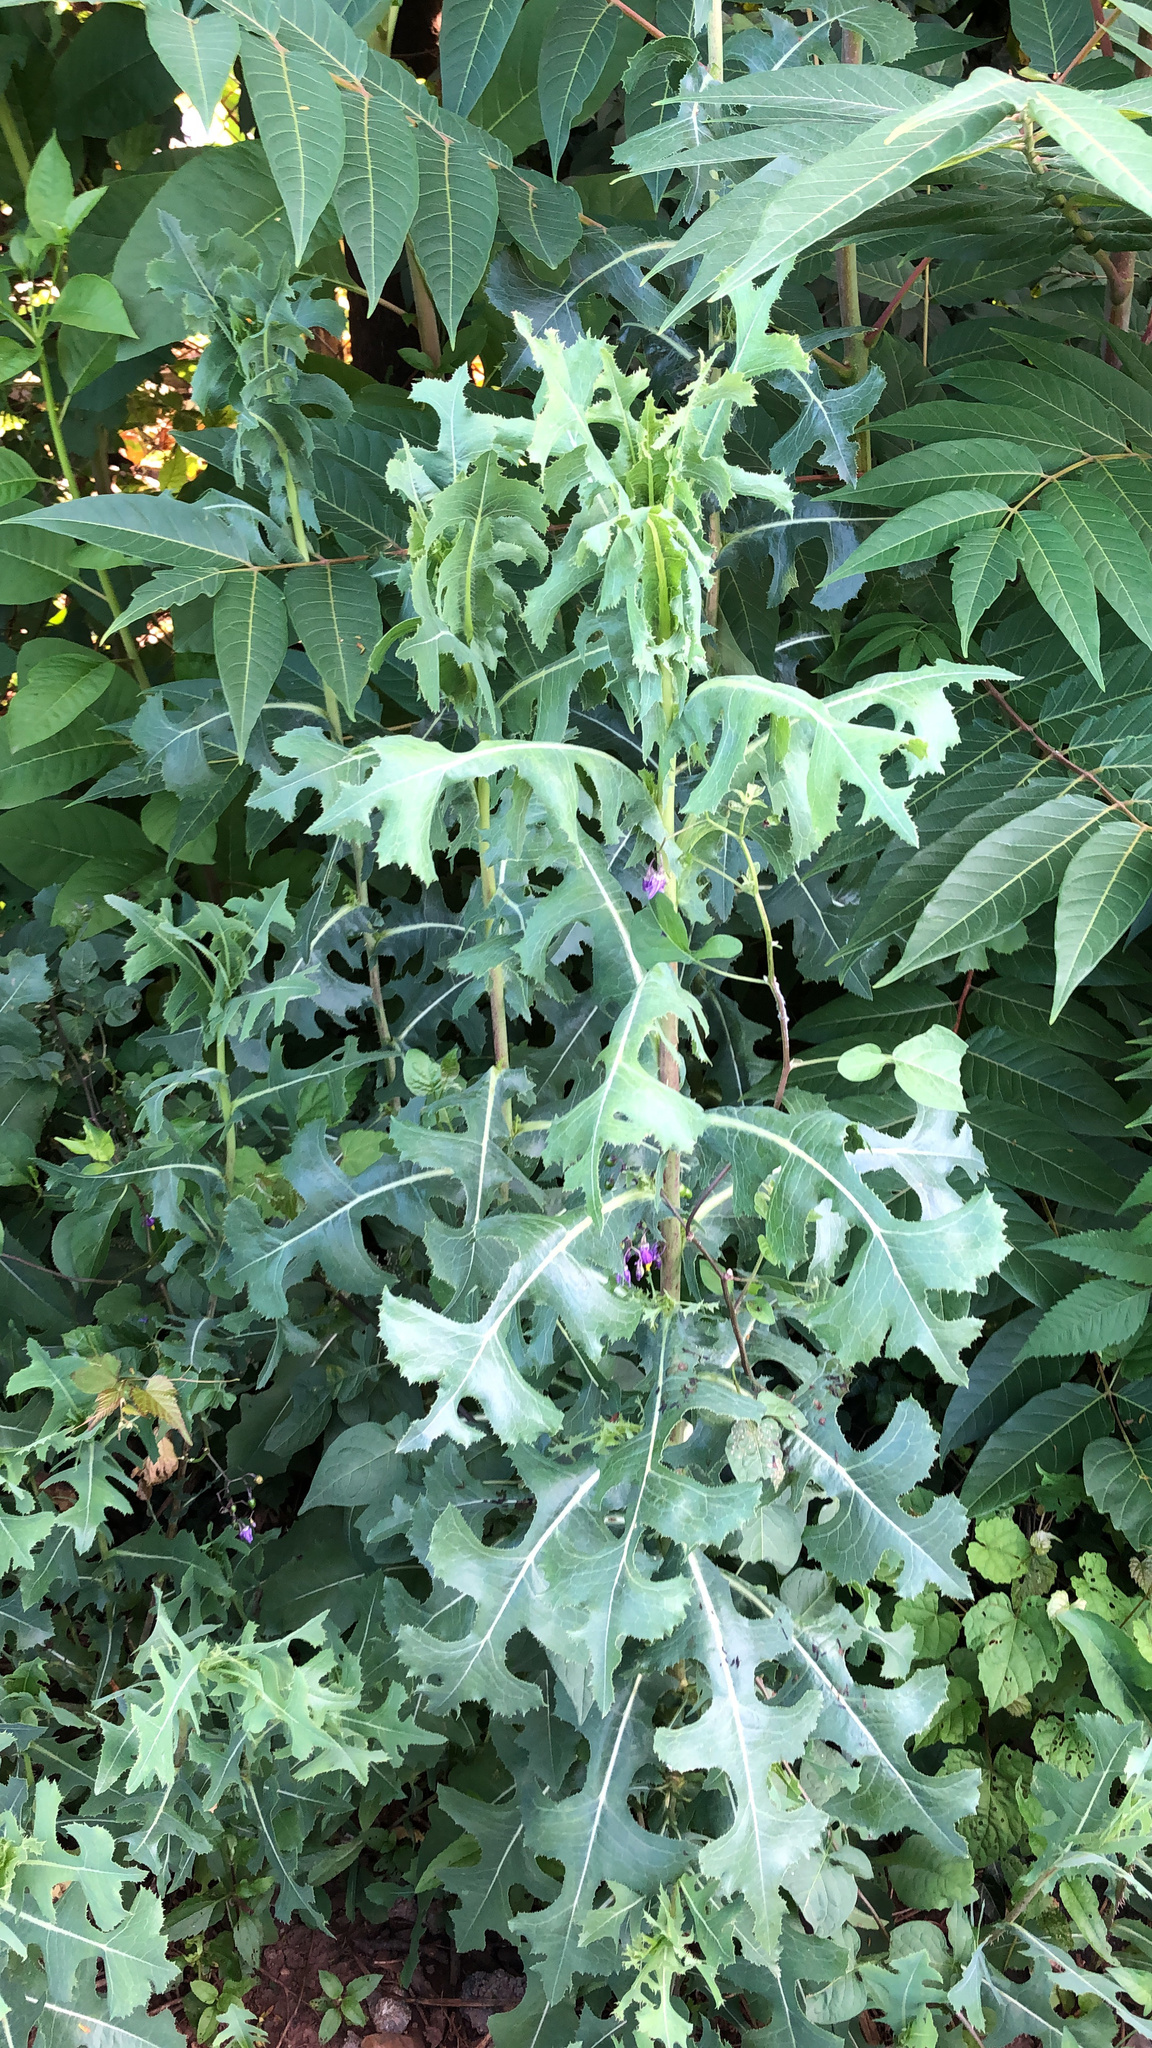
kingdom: Plantae
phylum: Tracheophyta
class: Magnoliopsida
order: Asterales
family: Asteraceae
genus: Lactuca
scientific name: Lactuca serriola
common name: Prickly lettuce
